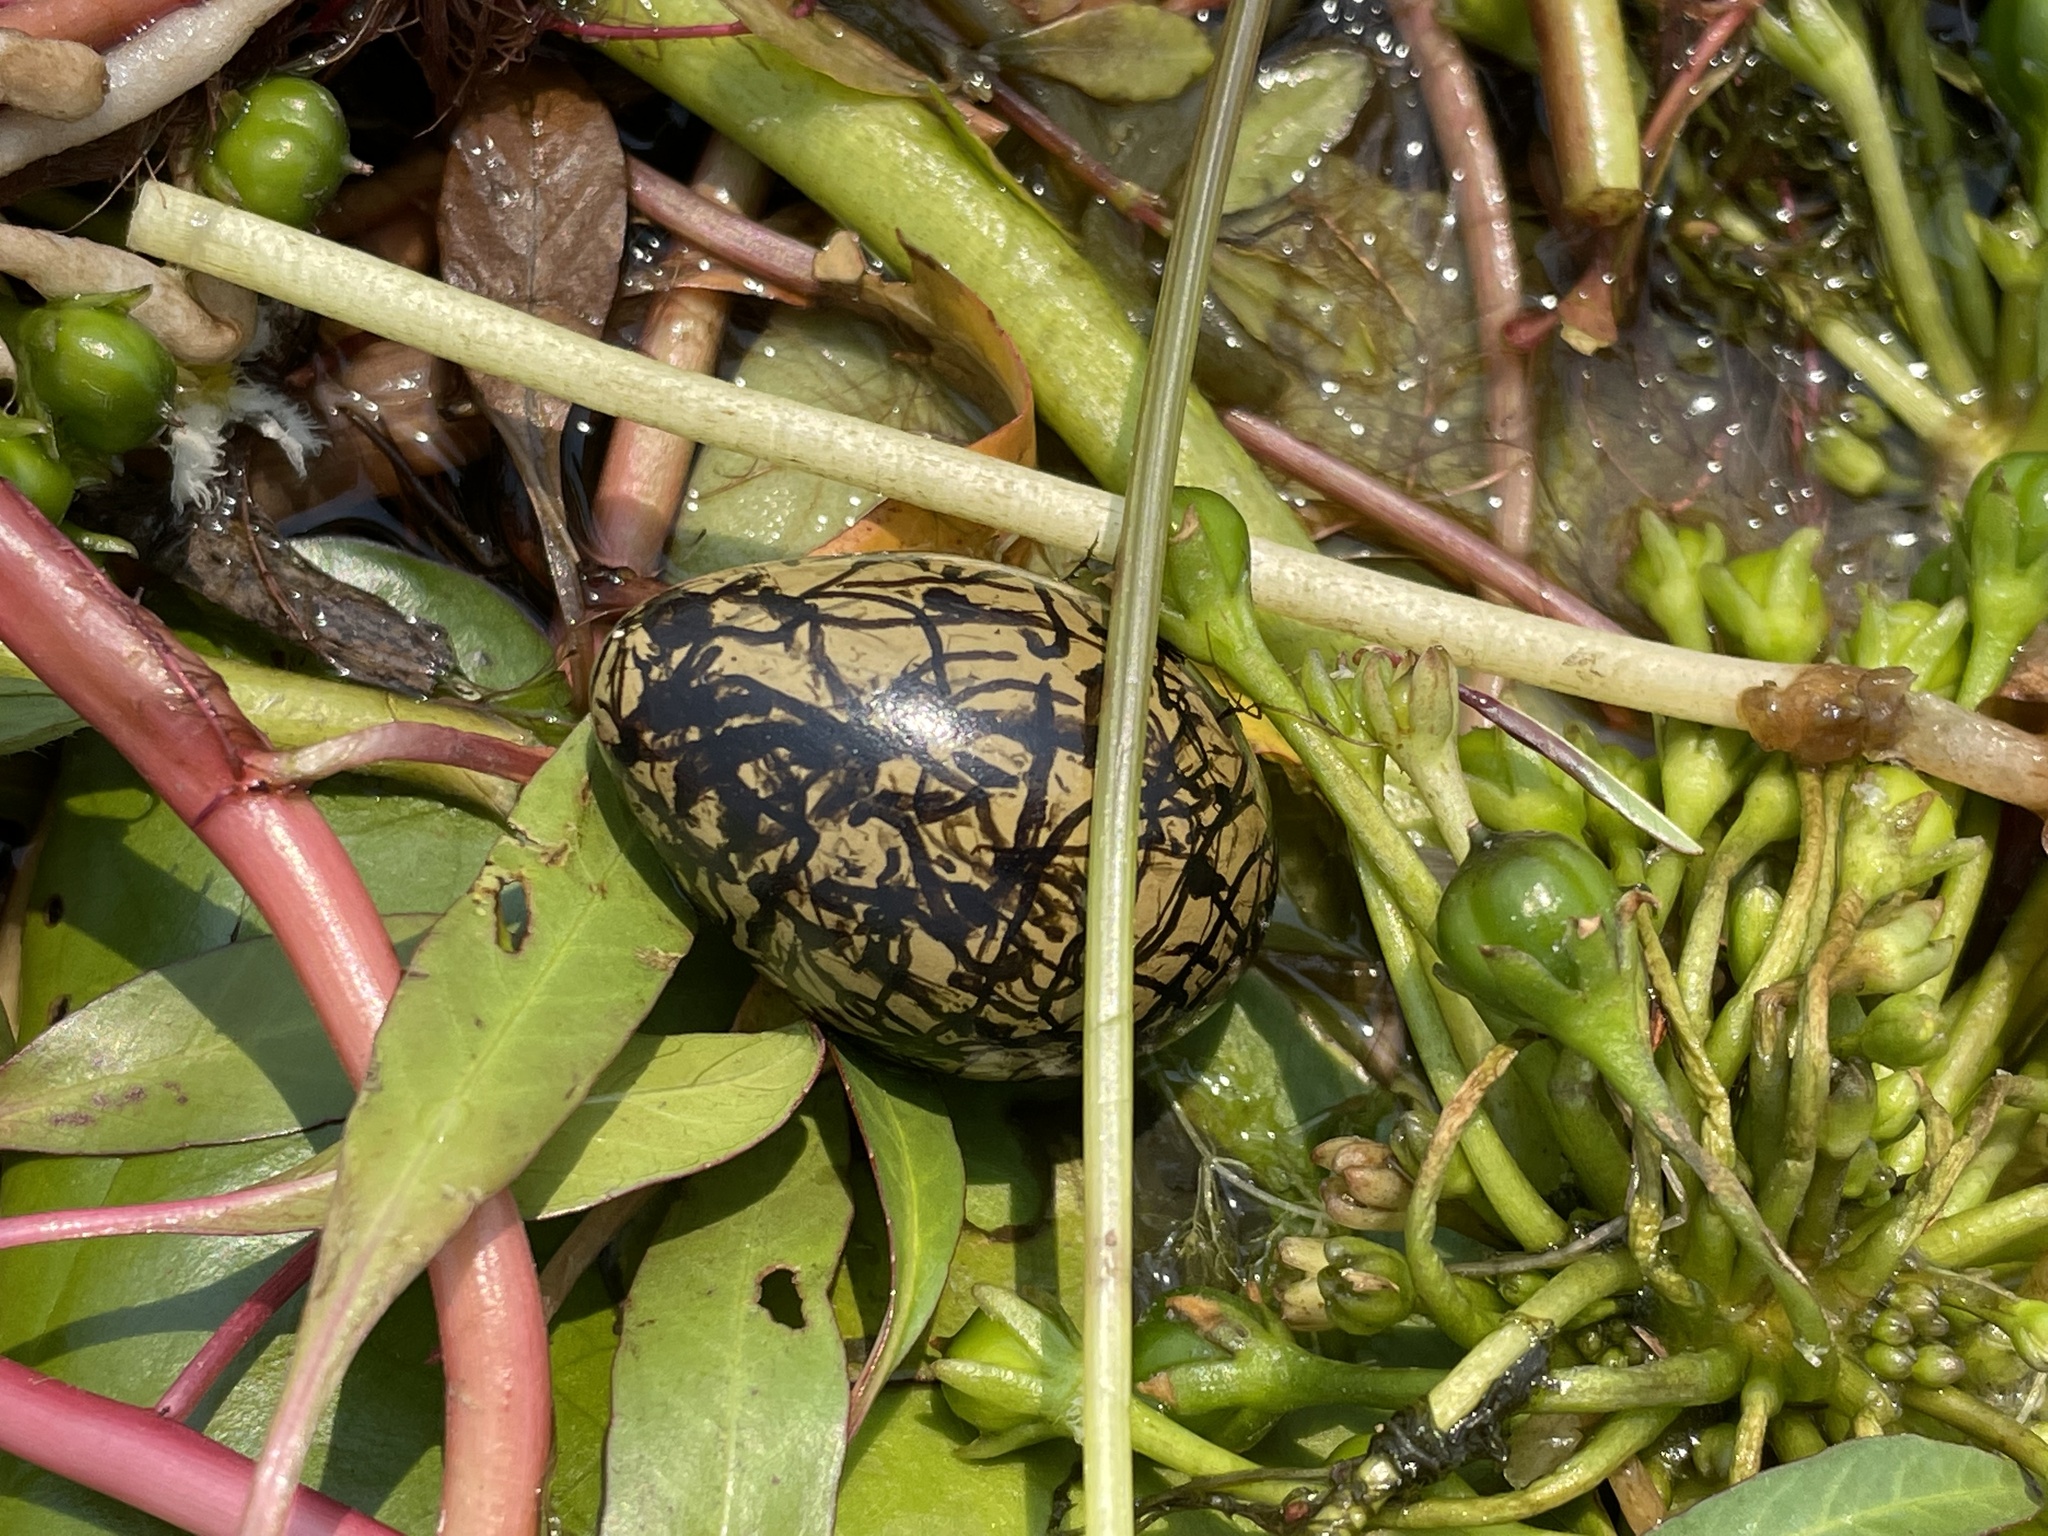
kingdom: Animalia
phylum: Chordata
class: Aves
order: Charadriiformes
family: Jacanidae
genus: Actophilornis
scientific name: Actophilornis africanus
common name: African jacana
